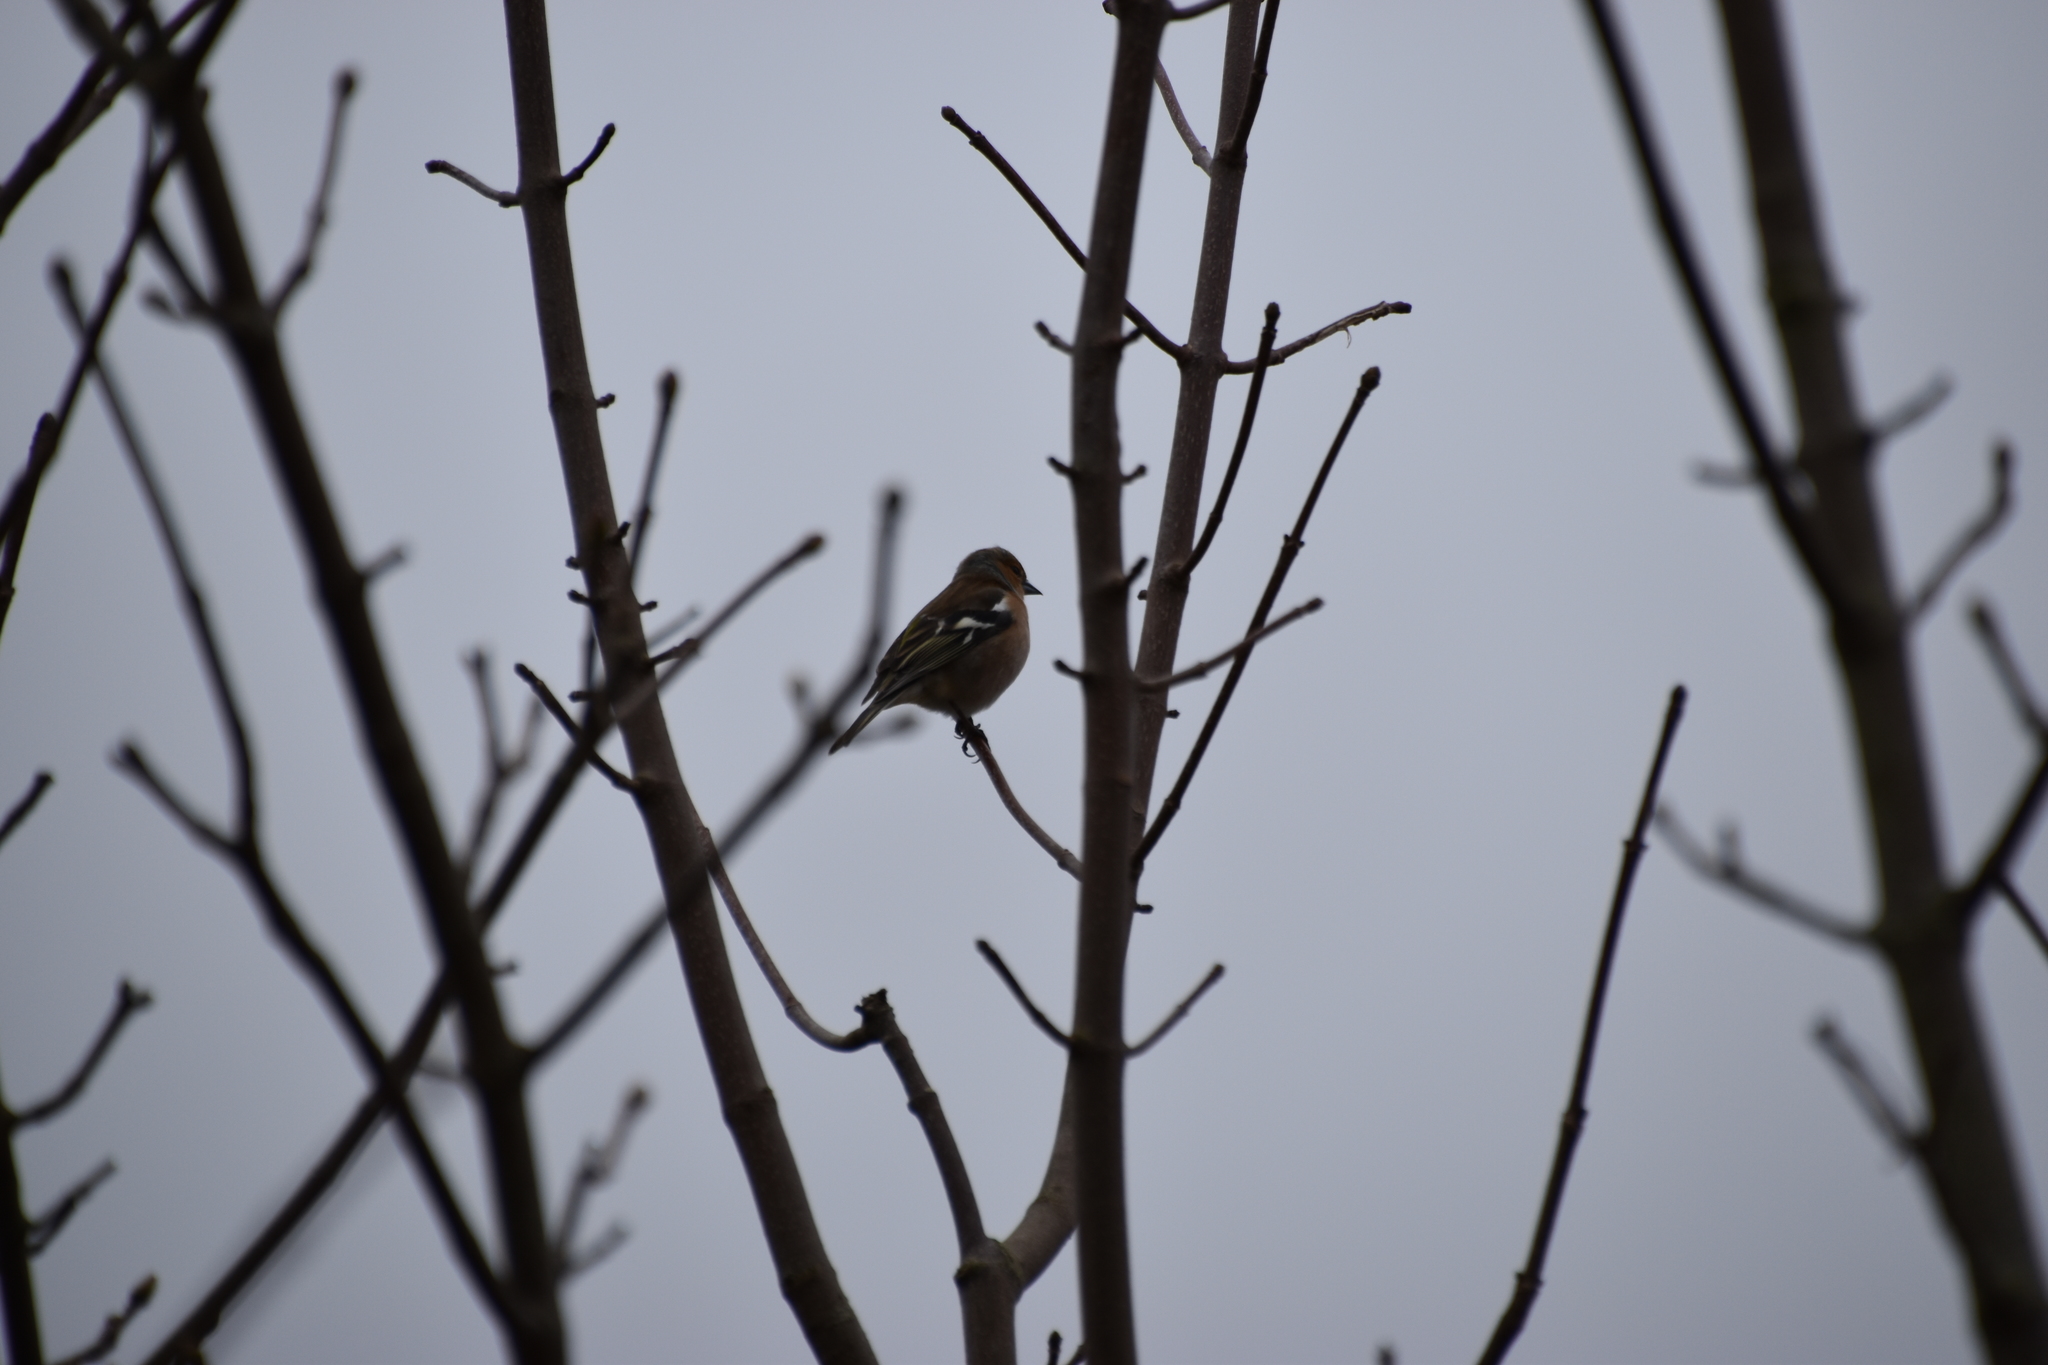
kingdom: Animalia
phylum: Chordata
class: Aves
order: Passeriformes
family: Fringillidae
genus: Fringilla
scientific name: Fringilla coelebs
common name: Common chaffinch
